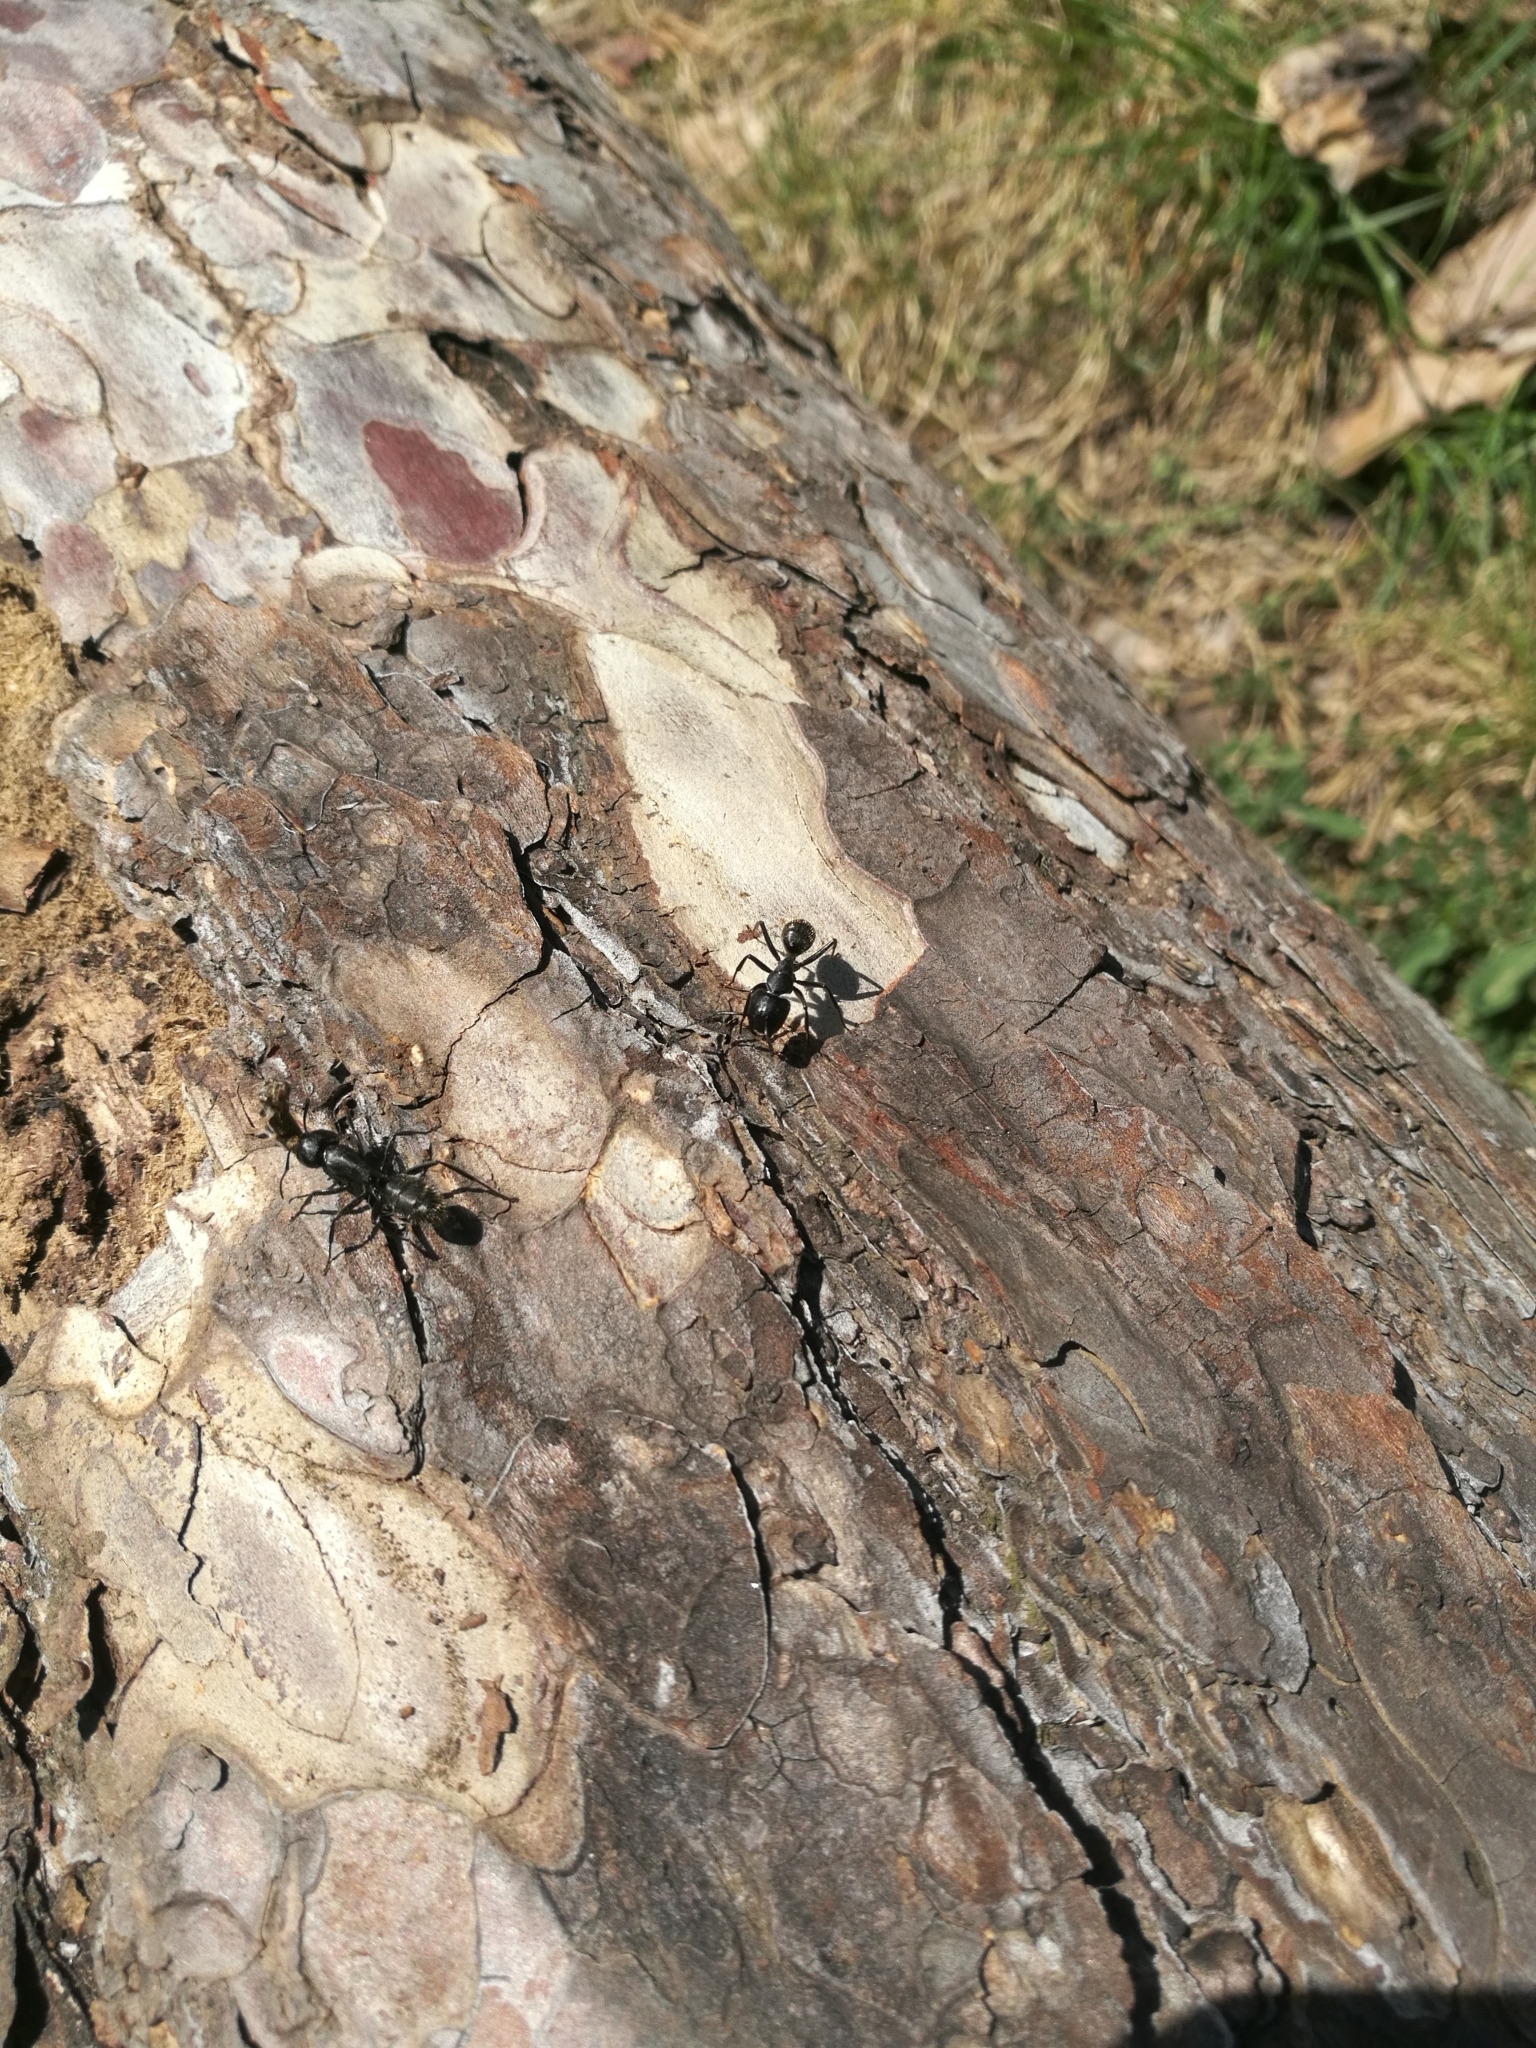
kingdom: Animalia
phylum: Arthropoda
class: Insecta
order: Hymenoptera
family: Formicidae
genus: Camponotus
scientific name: Camponotus vagus
